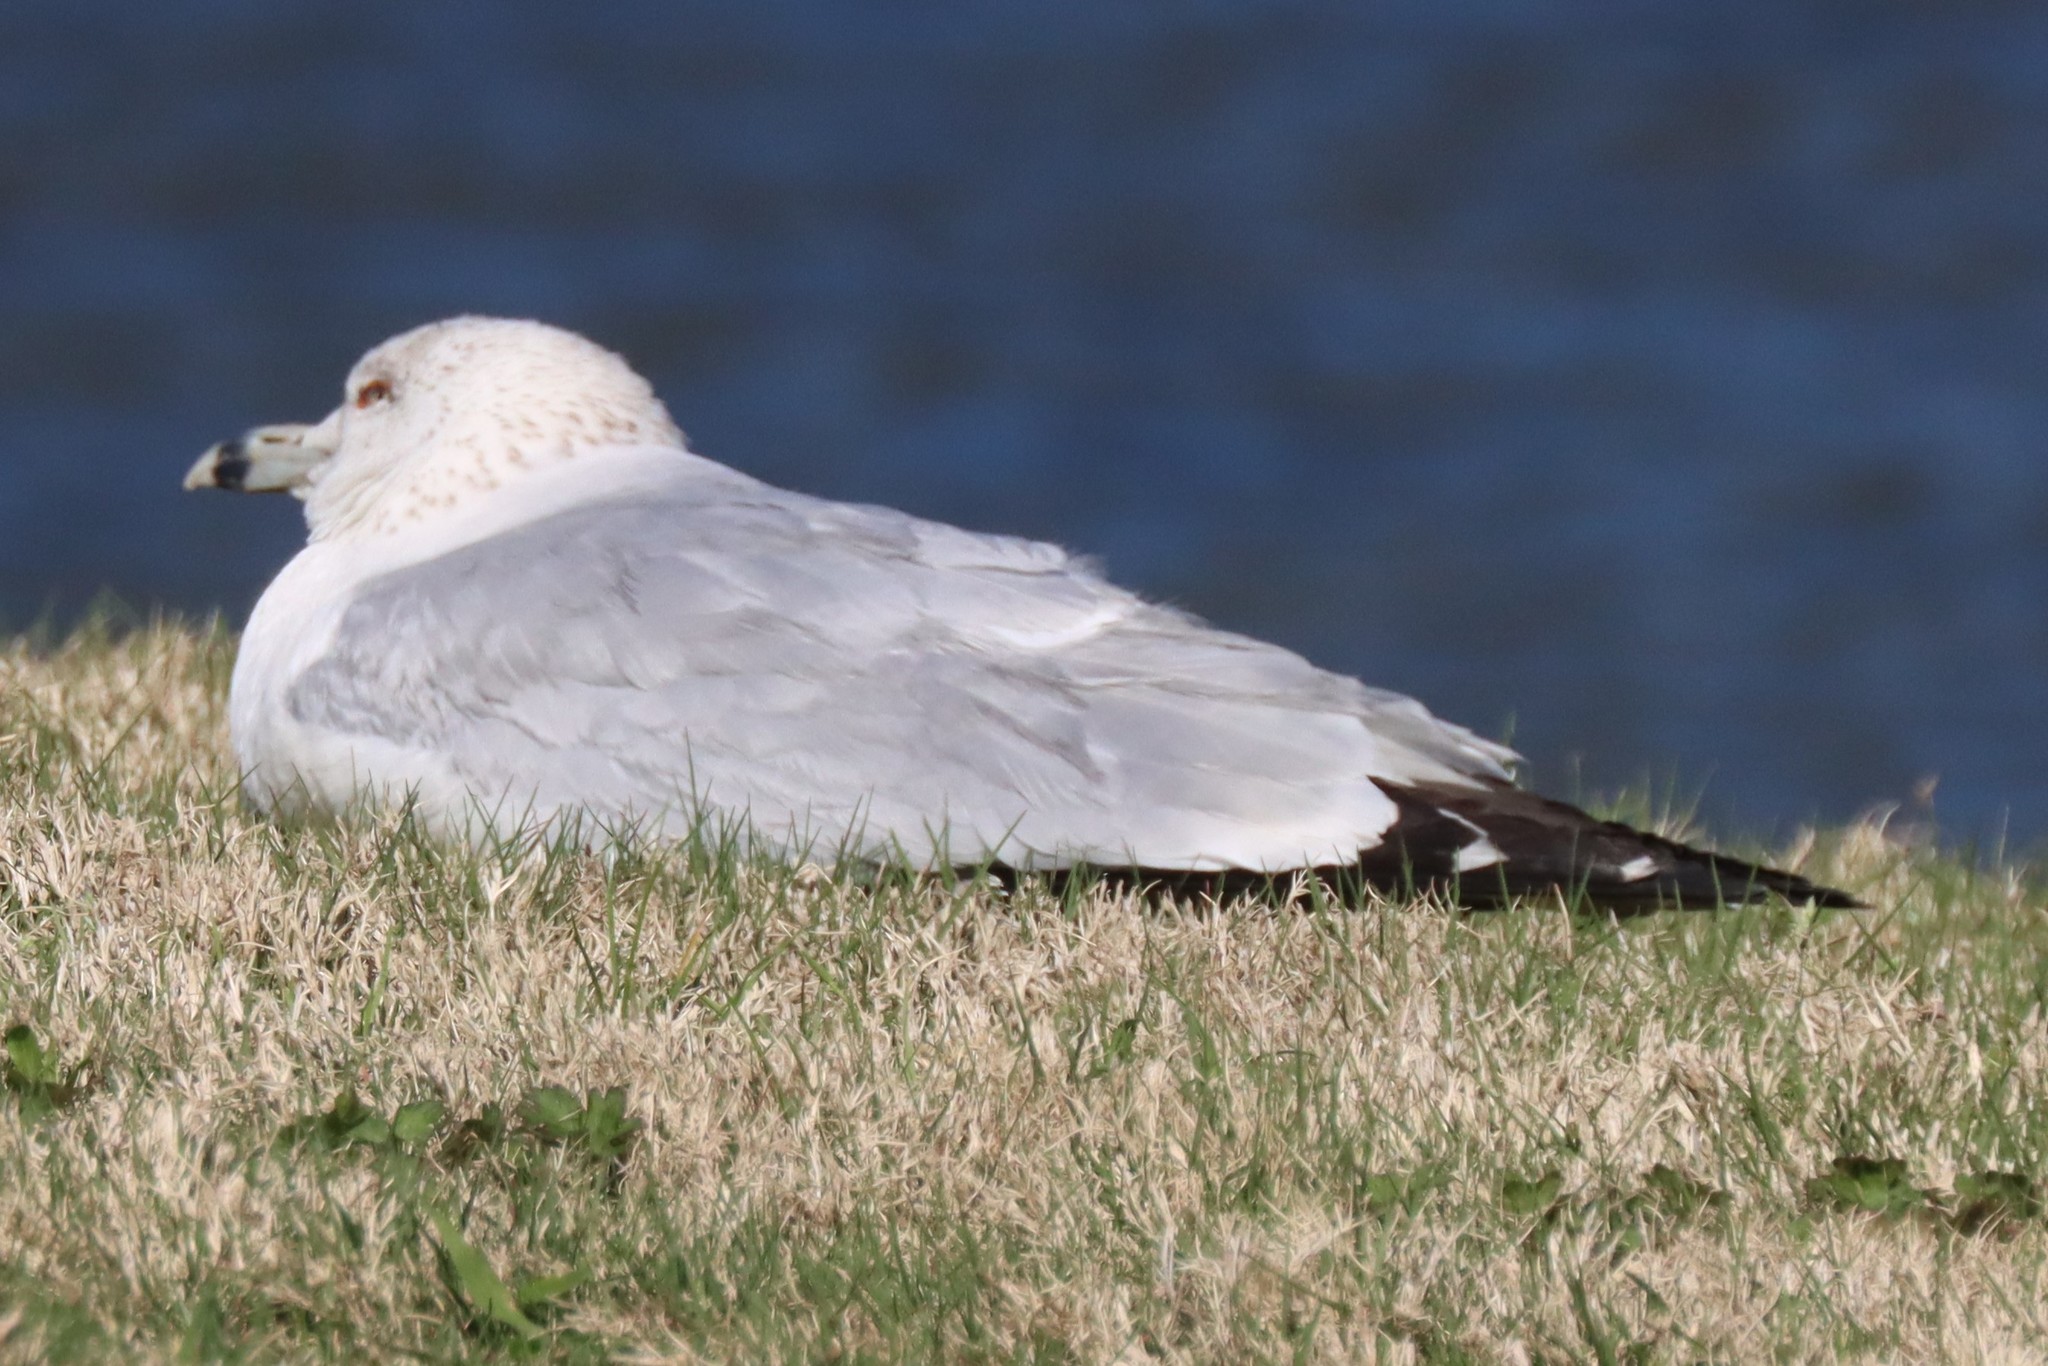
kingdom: Animalia
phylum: Chordata
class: Aves
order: Charadriiformes
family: Laridae
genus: Larus
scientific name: Larus delawarensis
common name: Ring-billed gull
